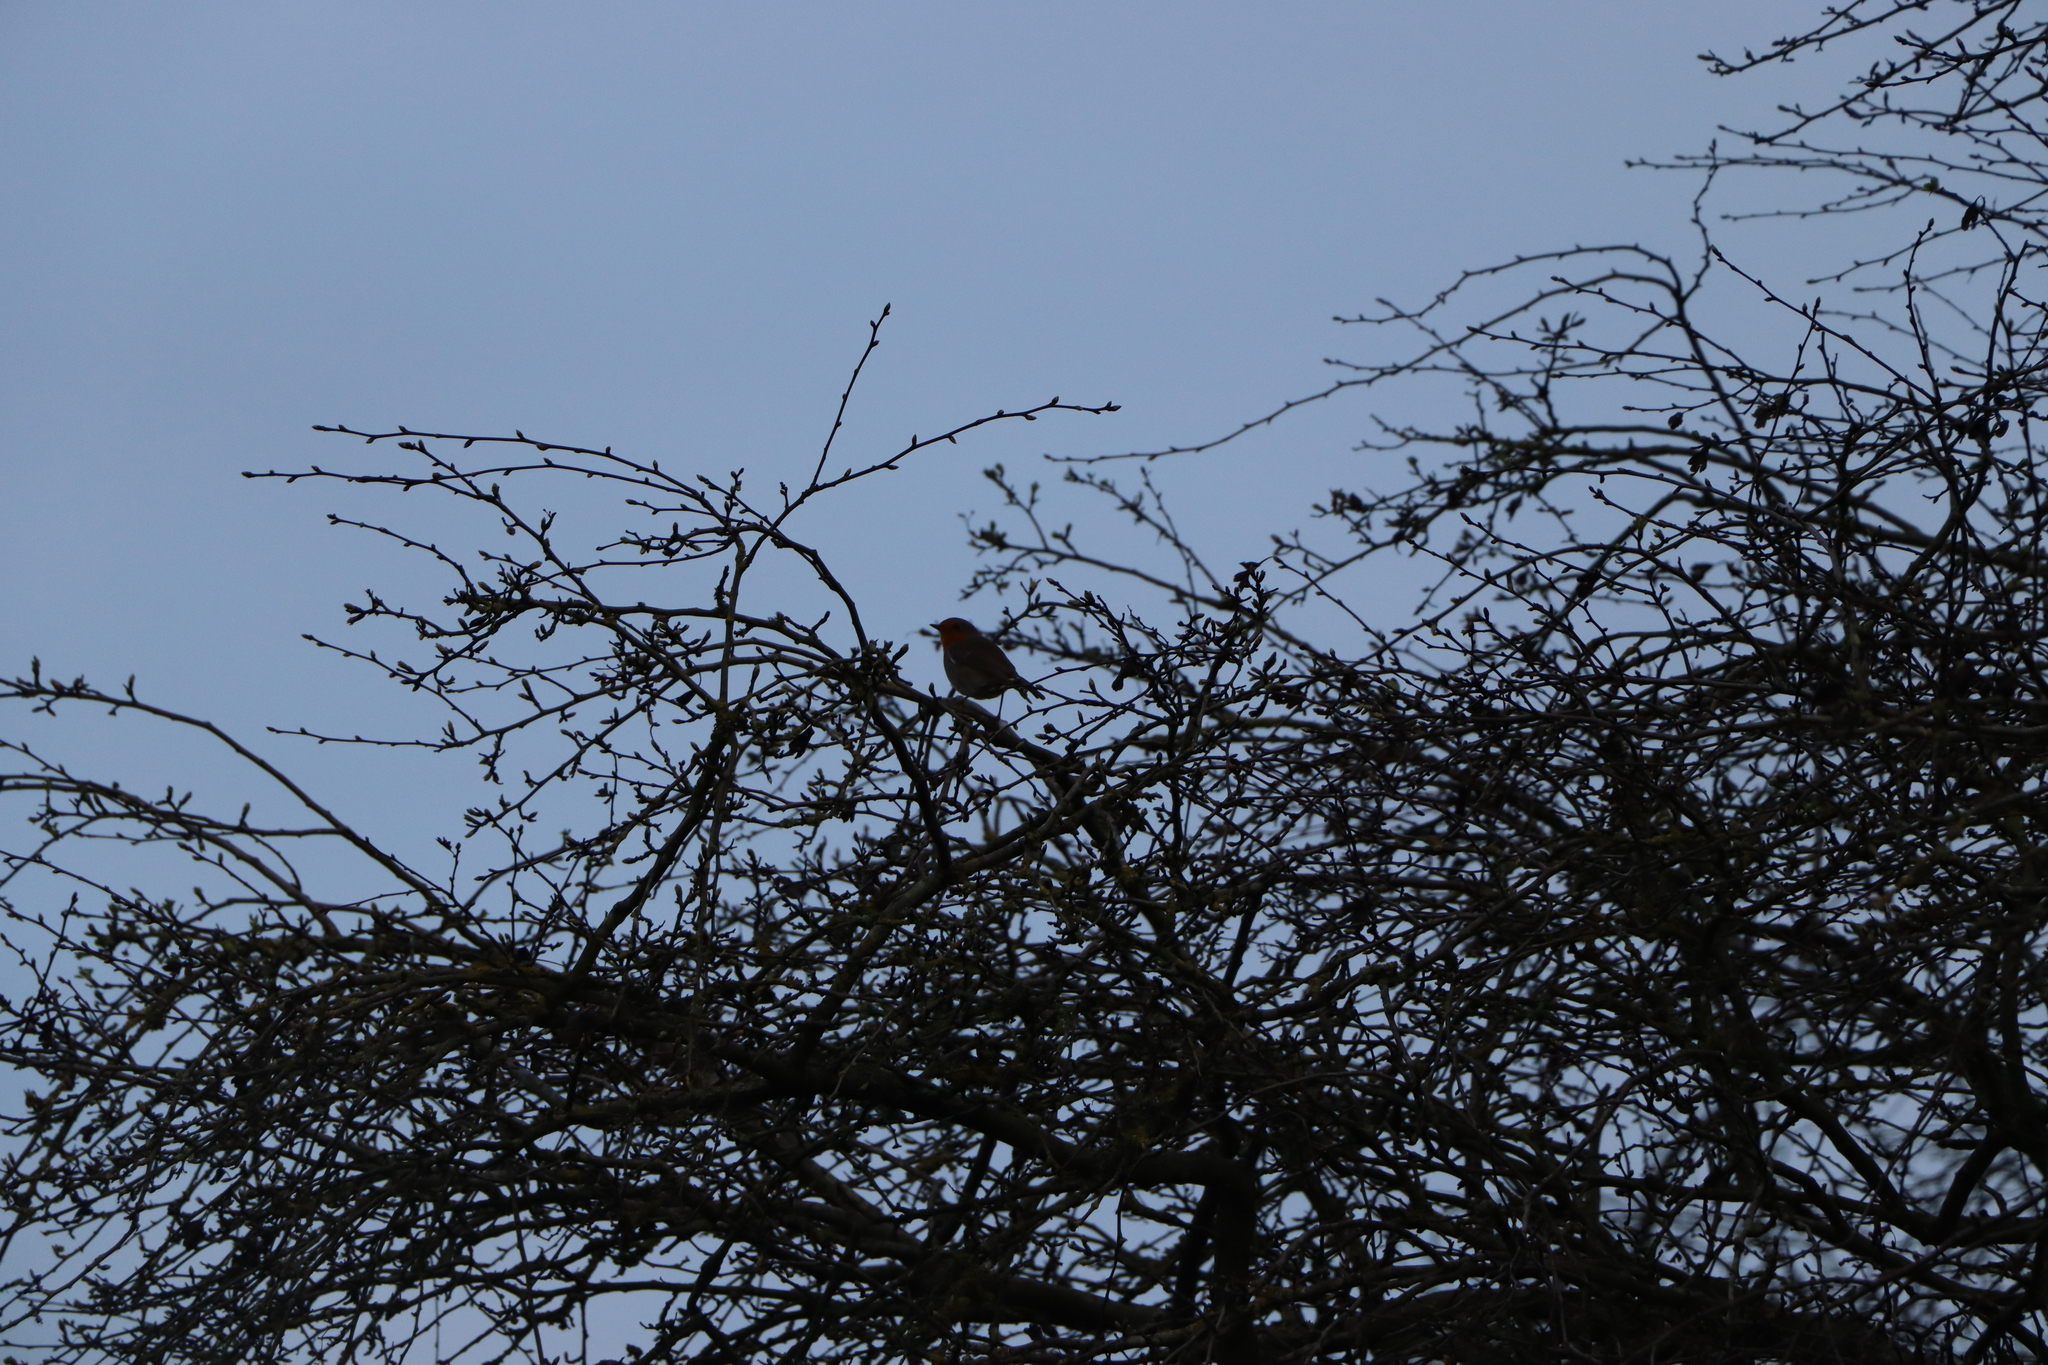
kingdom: Animalia
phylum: Chordata
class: Aves
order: Passeriformes
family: Muscicapidae
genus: Erithacus
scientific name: Erithacus rubecula
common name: European robin
